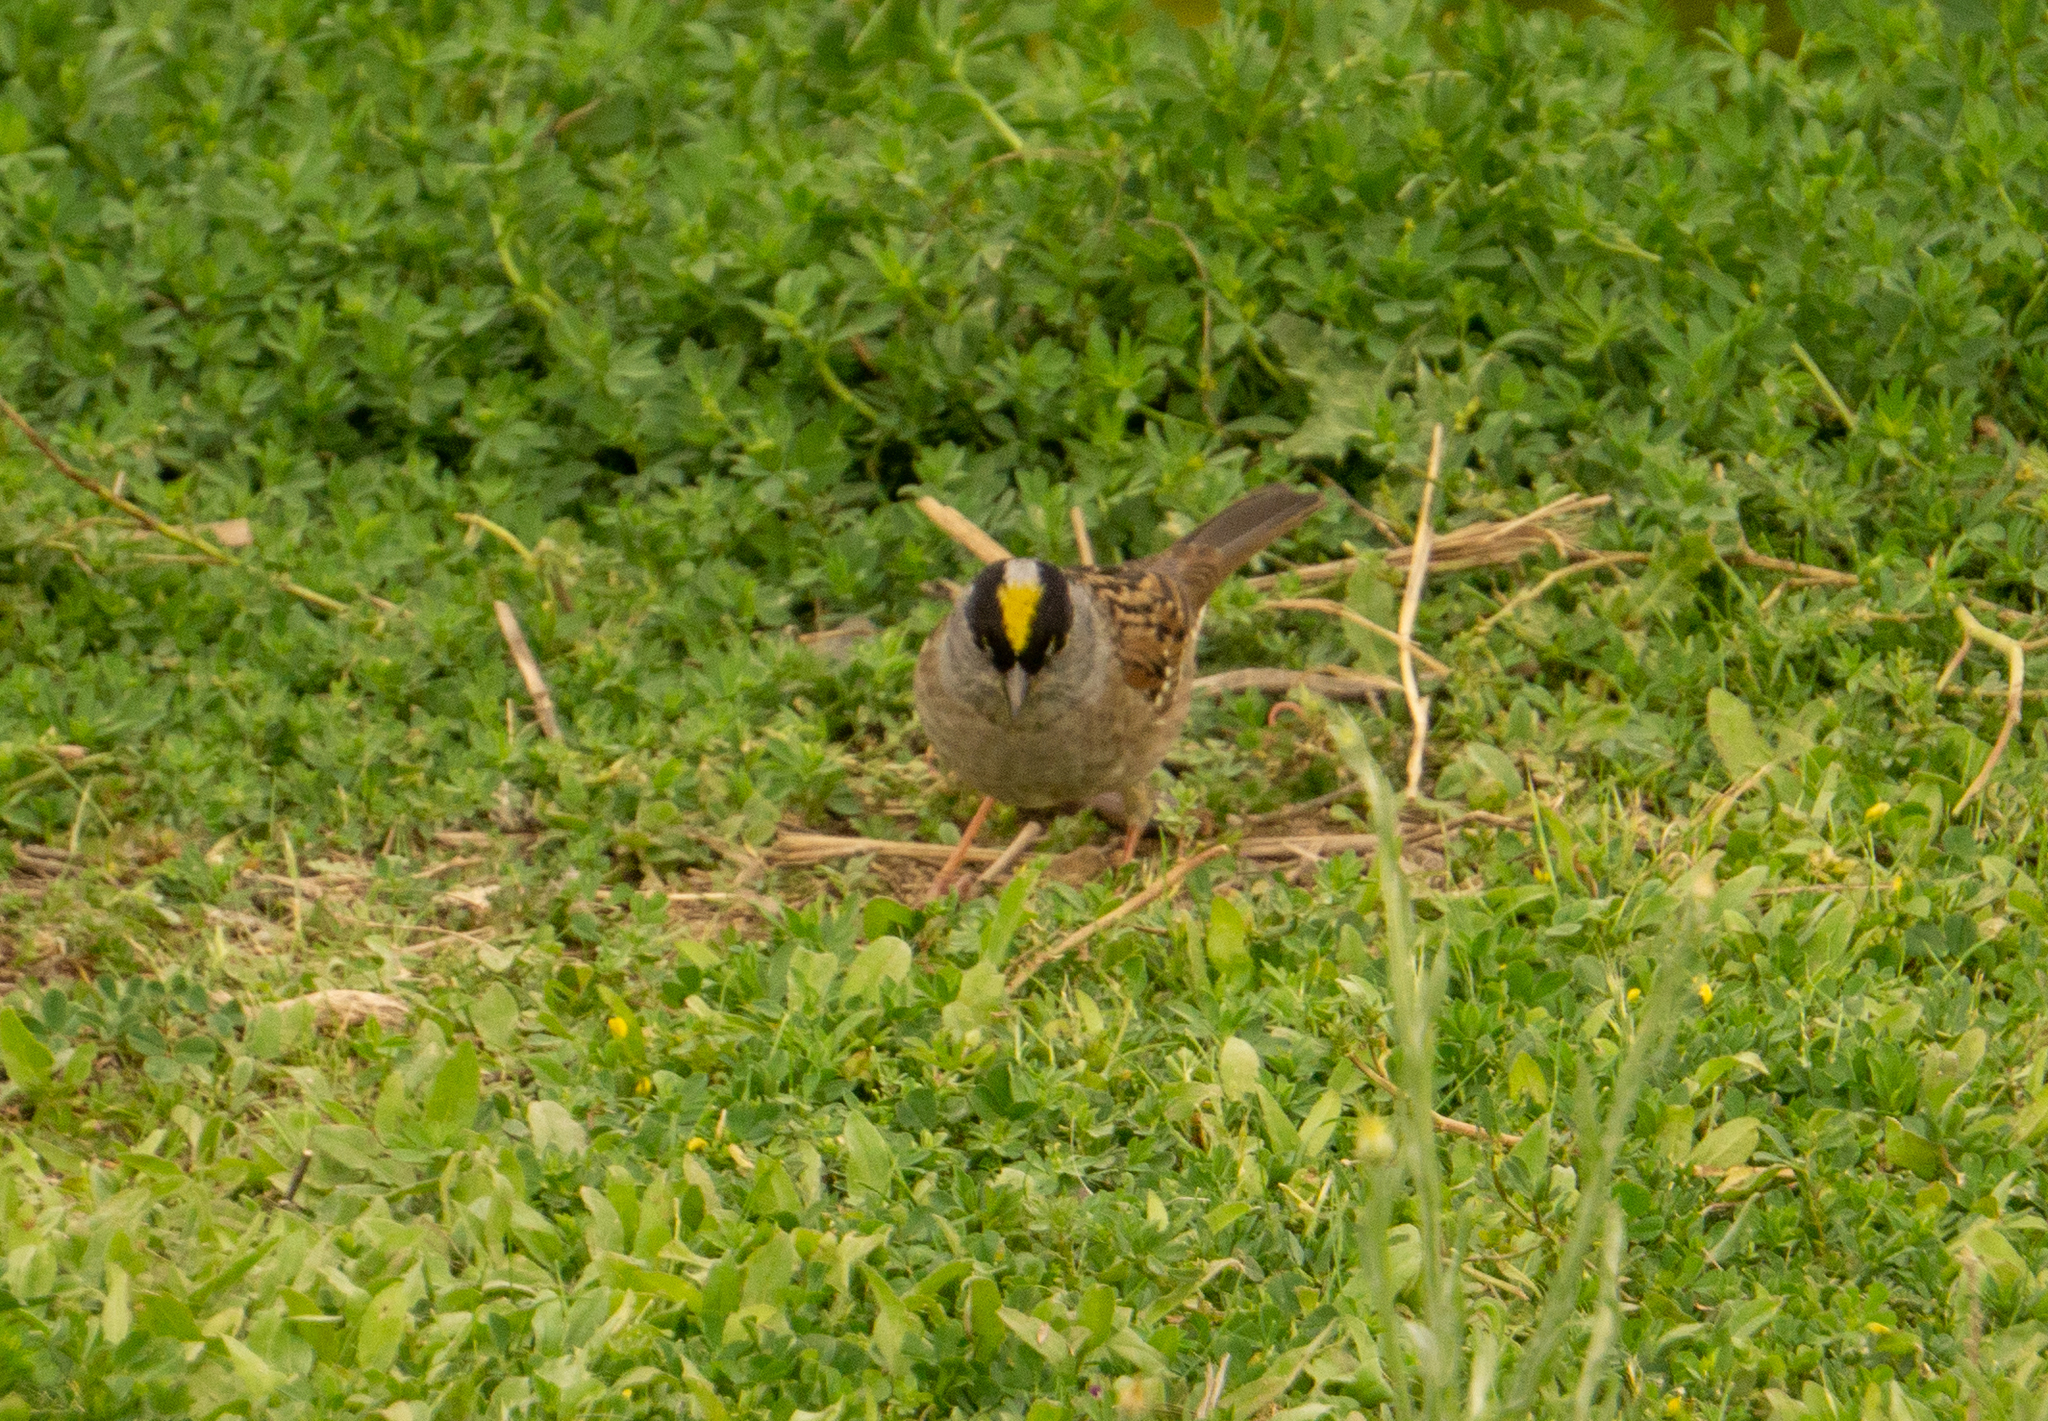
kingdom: Animalia
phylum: Chordata
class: Aves
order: Passeriformes
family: Passerellidae
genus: Zonotrichia
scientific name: Zonotrichia atricapilla
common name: Golden-crowned sparrow
